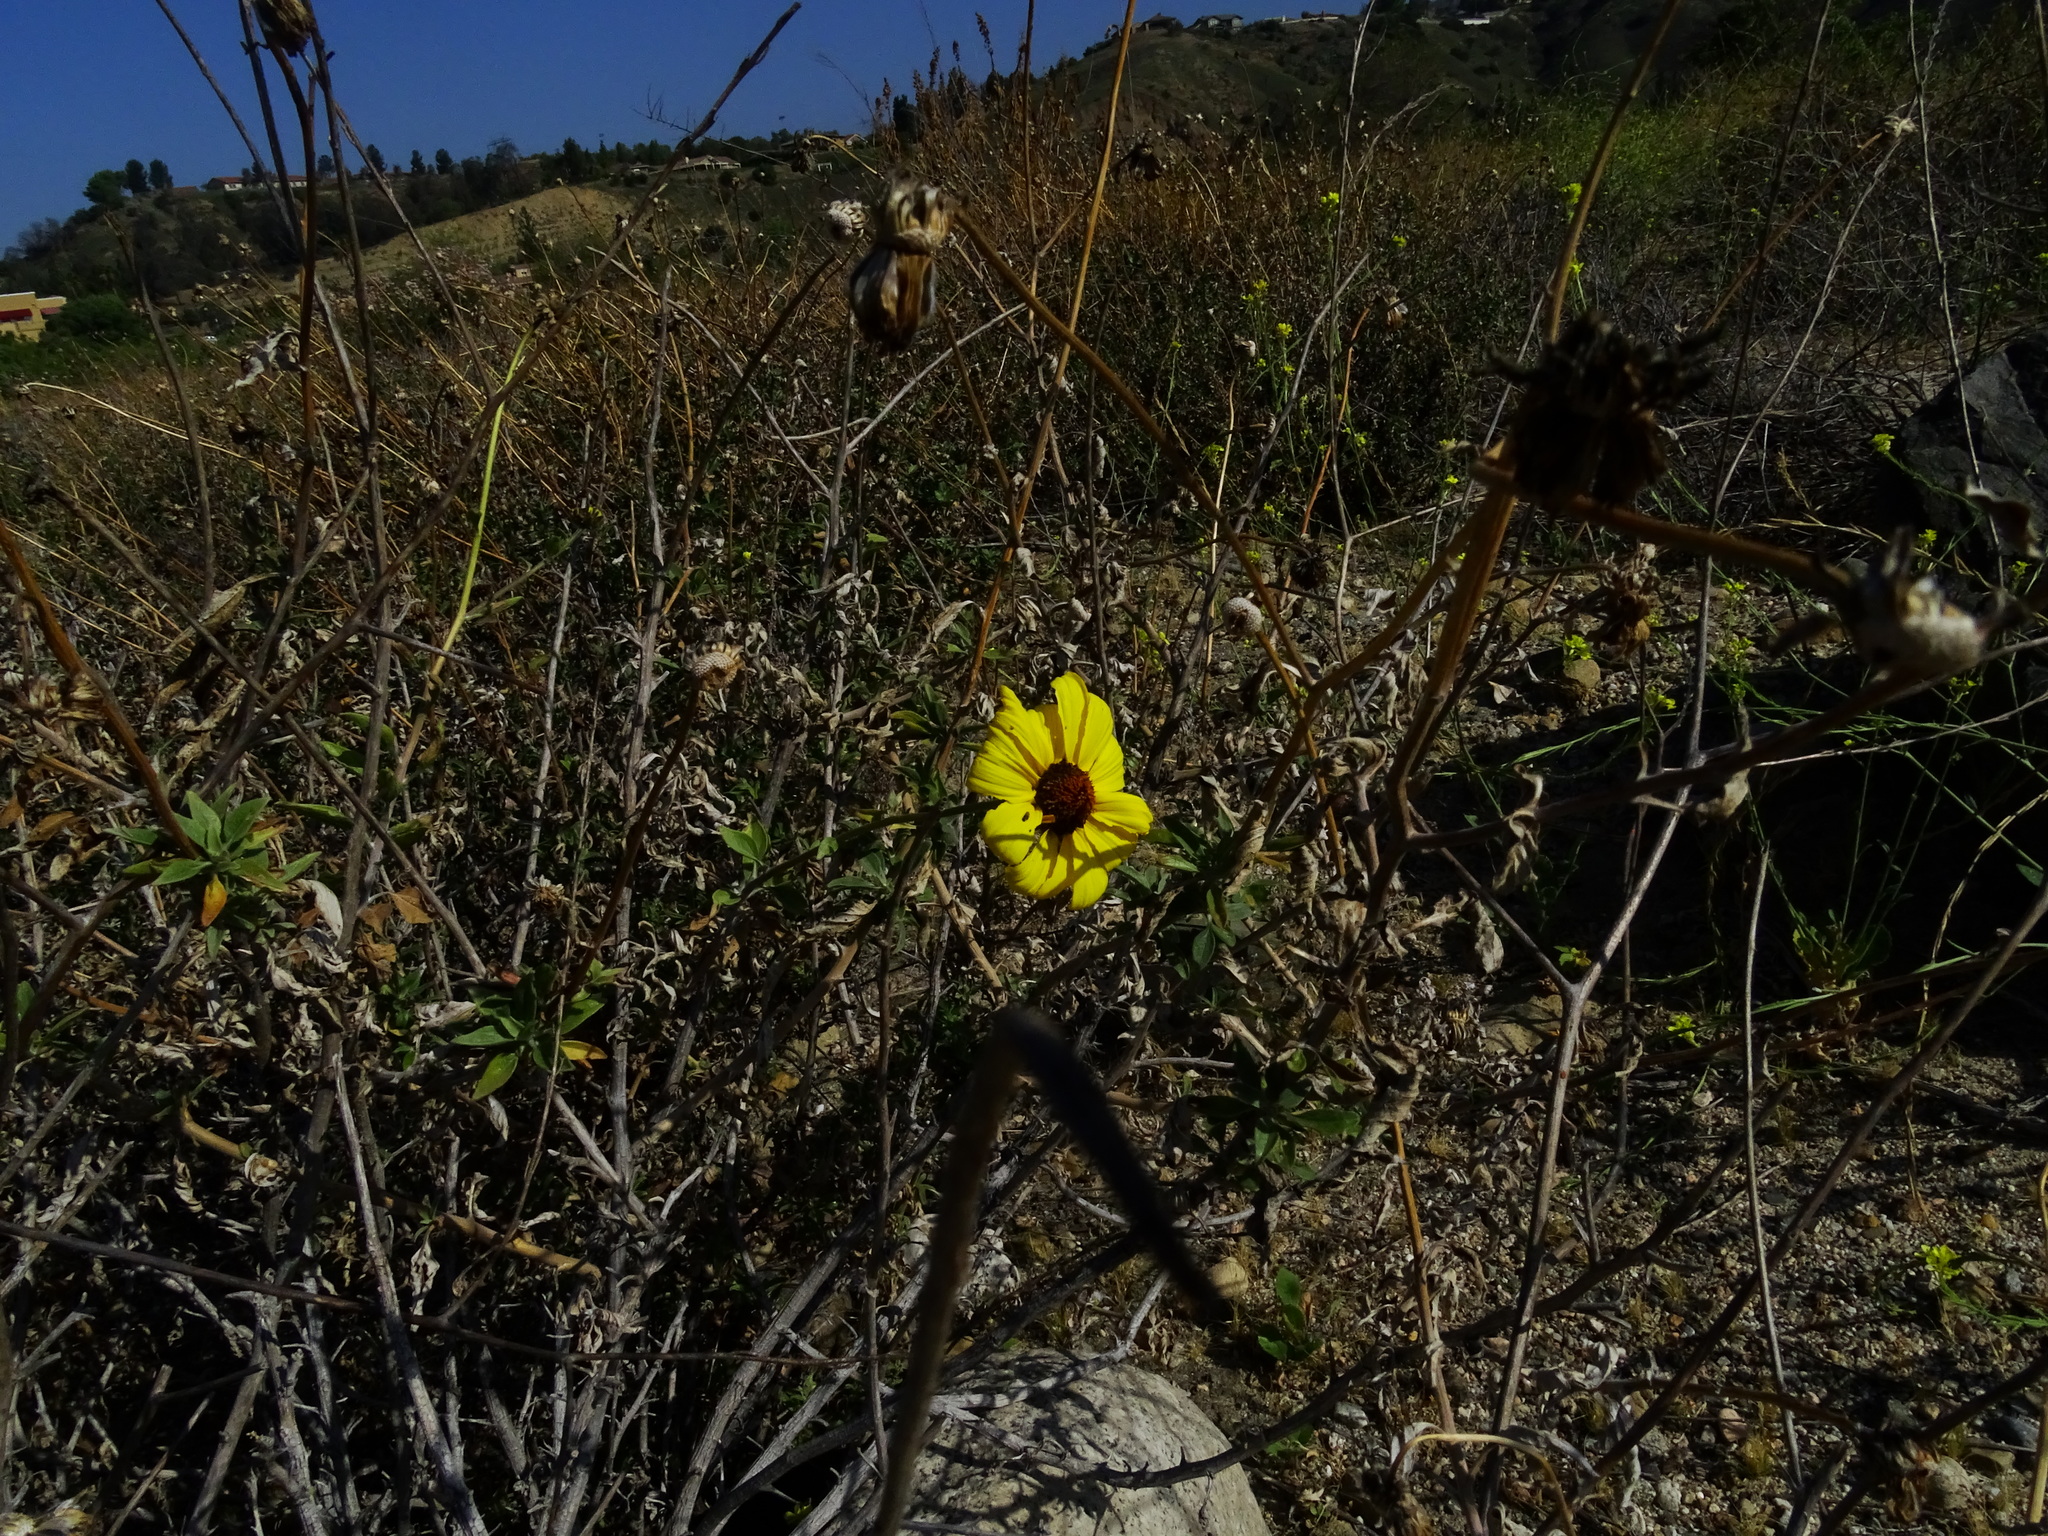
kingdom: Plantae
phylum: Tracheophyta
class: Magnoliopsida
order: Asterales
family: Asteraceae
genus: Encelia
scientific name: Encelia californica
